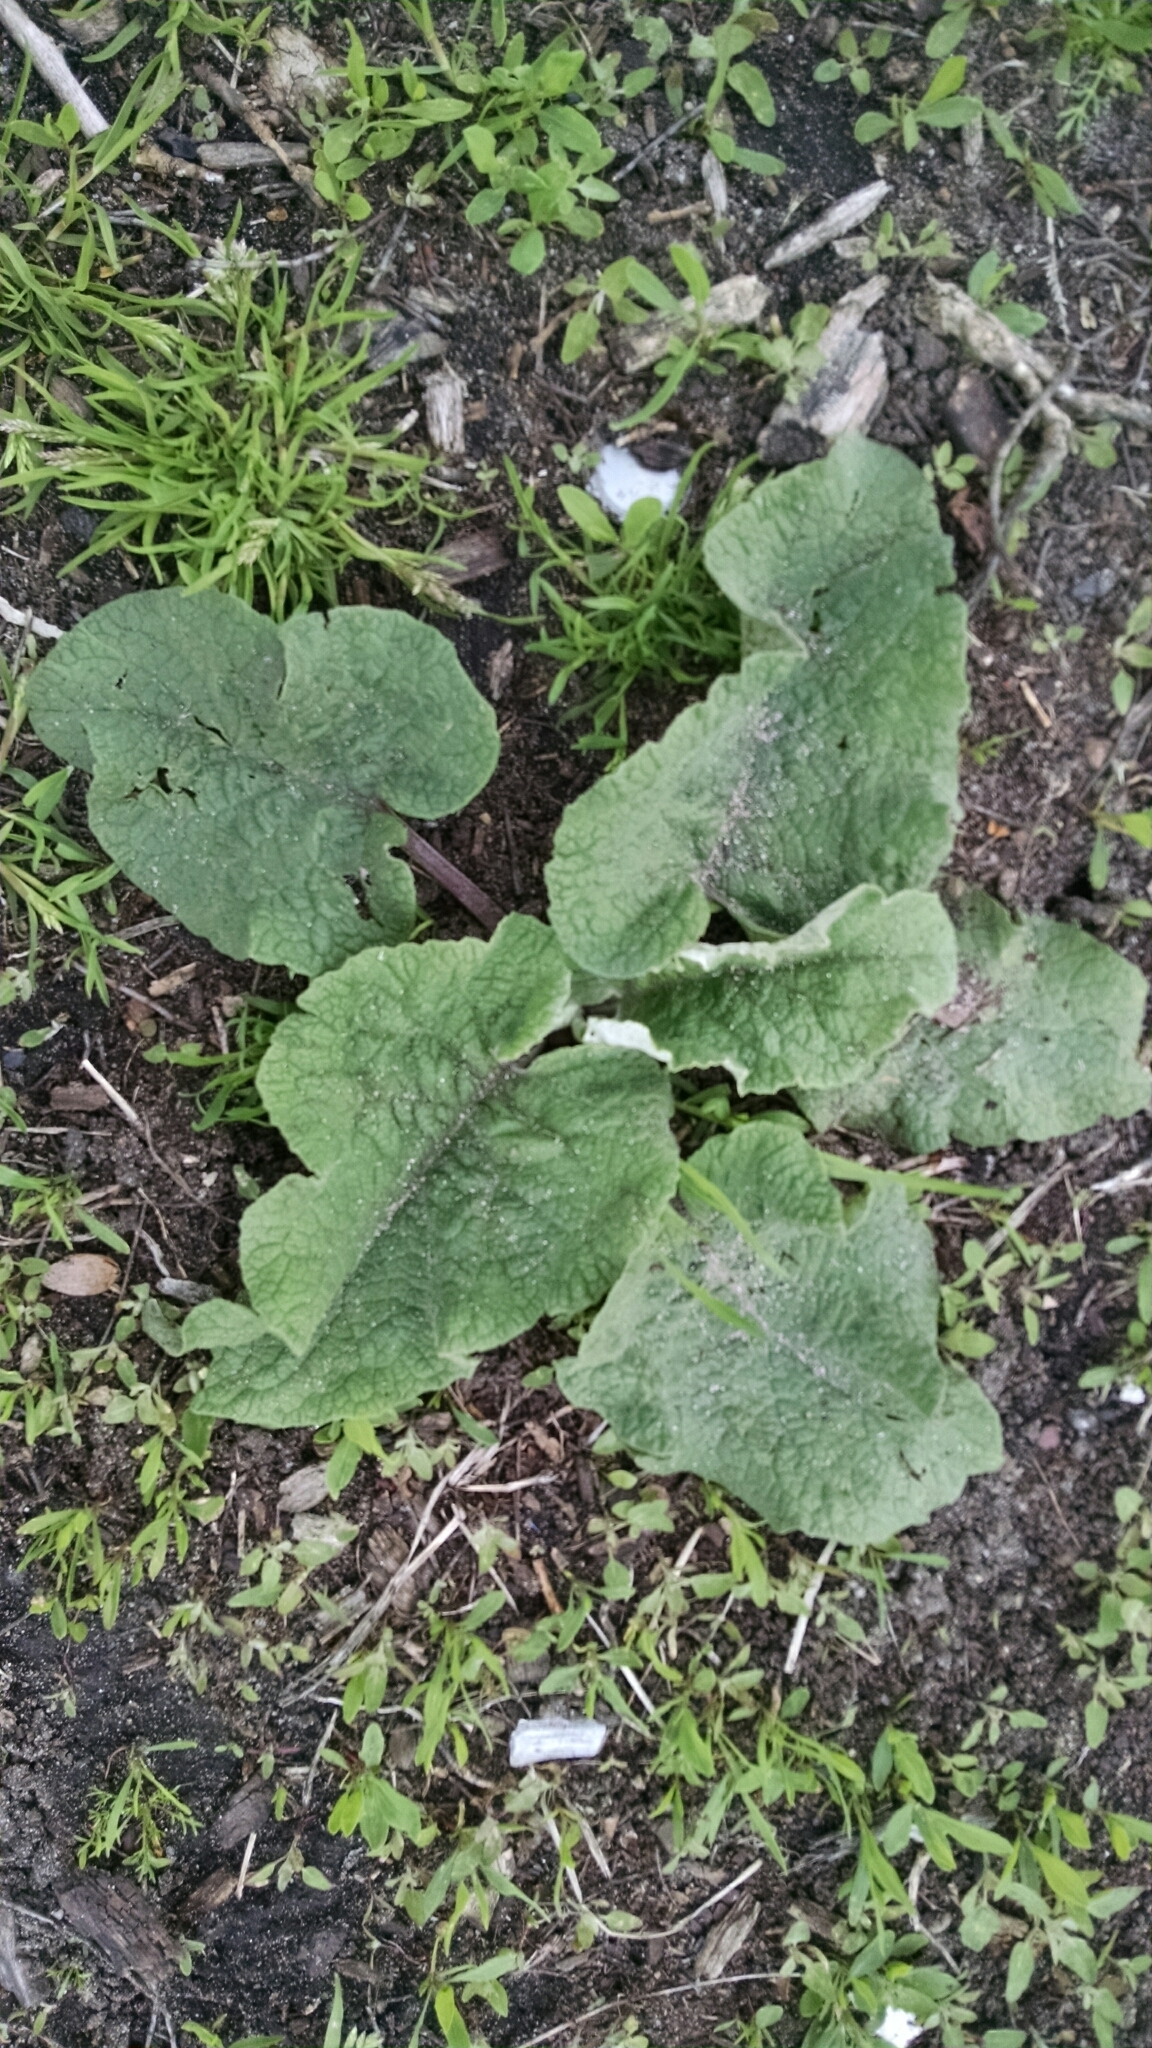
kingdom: Plantae
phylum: Tracheophyta
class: Magnoliopsida
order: Asterales
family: Asteraceae
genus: Arctium
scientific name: Arctium
